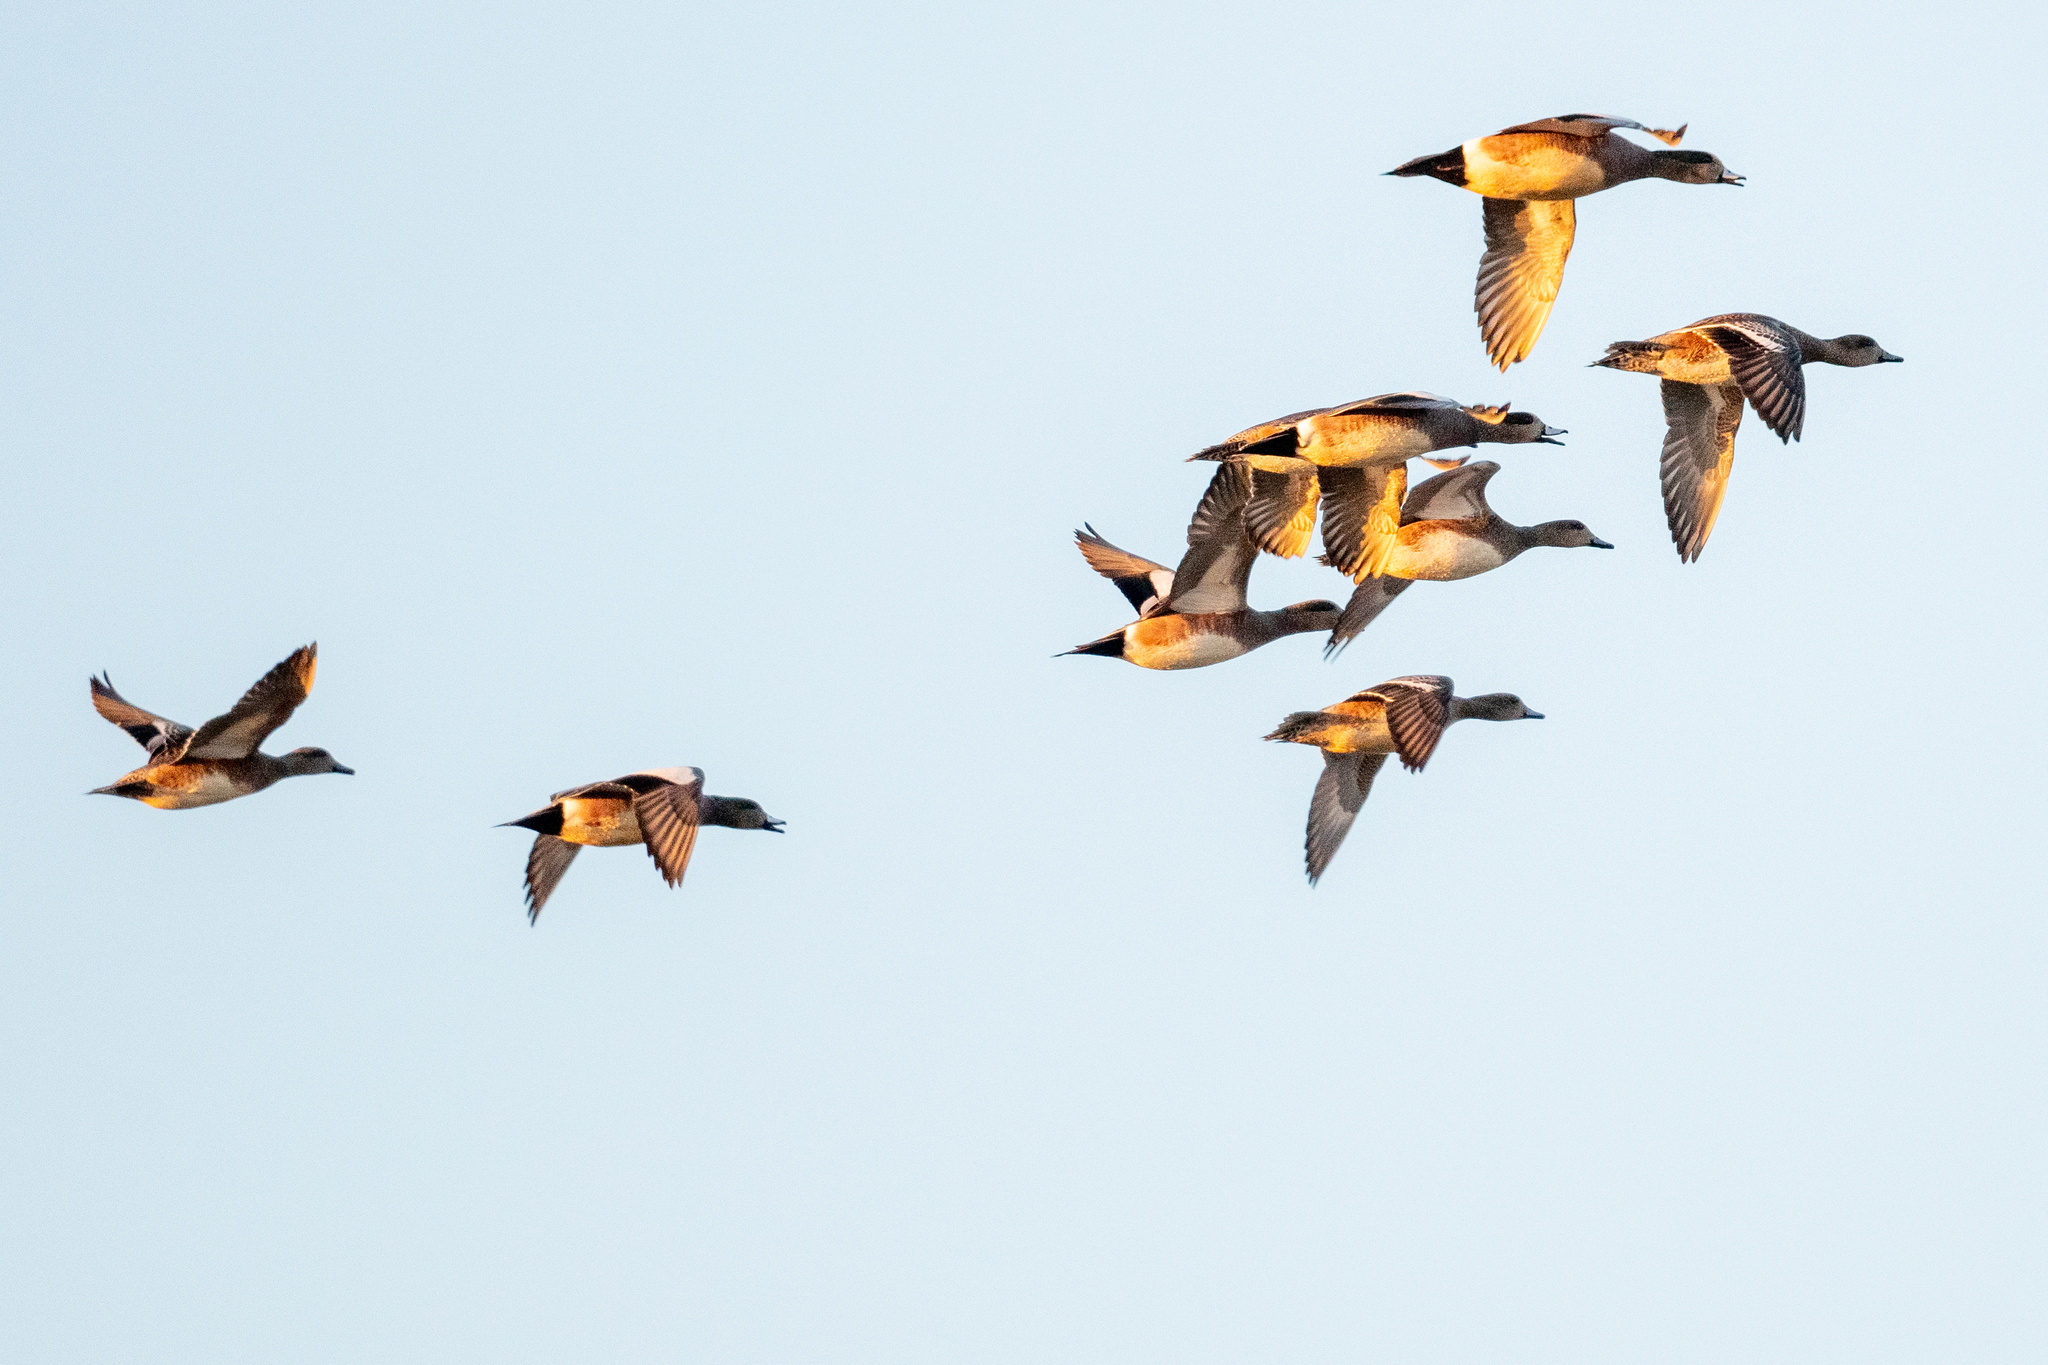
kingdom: Animalia
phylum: Chordata
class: Aves
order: Anseriformes
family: Anatidae
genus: Mareca
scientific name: Mareca americana
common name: American wigeon
